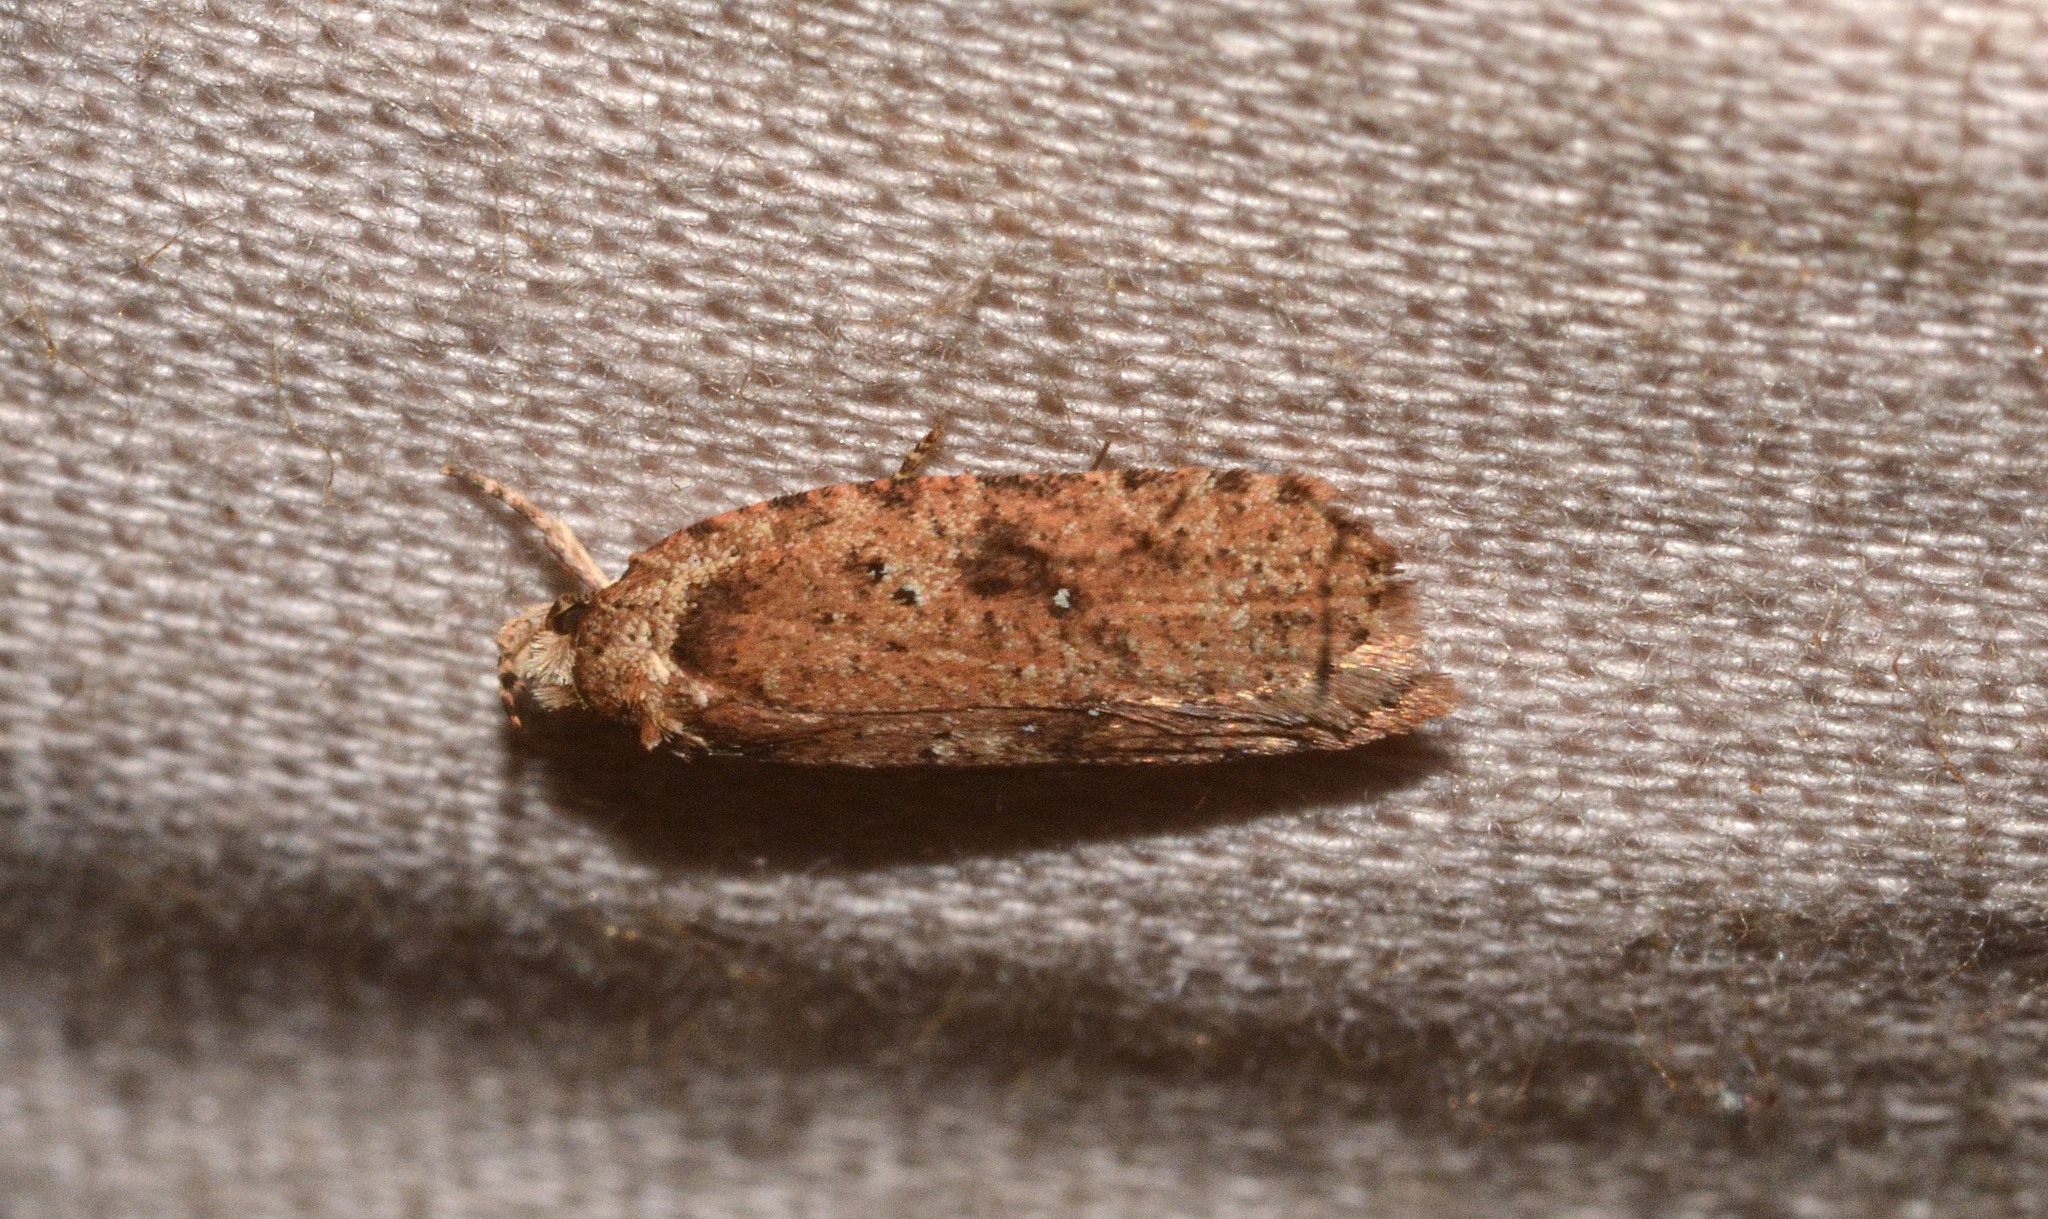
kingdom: Animalia
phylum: Arthropoda
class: Insecta
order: Lepidoptera
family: Depressariidae
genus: Agonopterix
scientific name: Agonopterix
